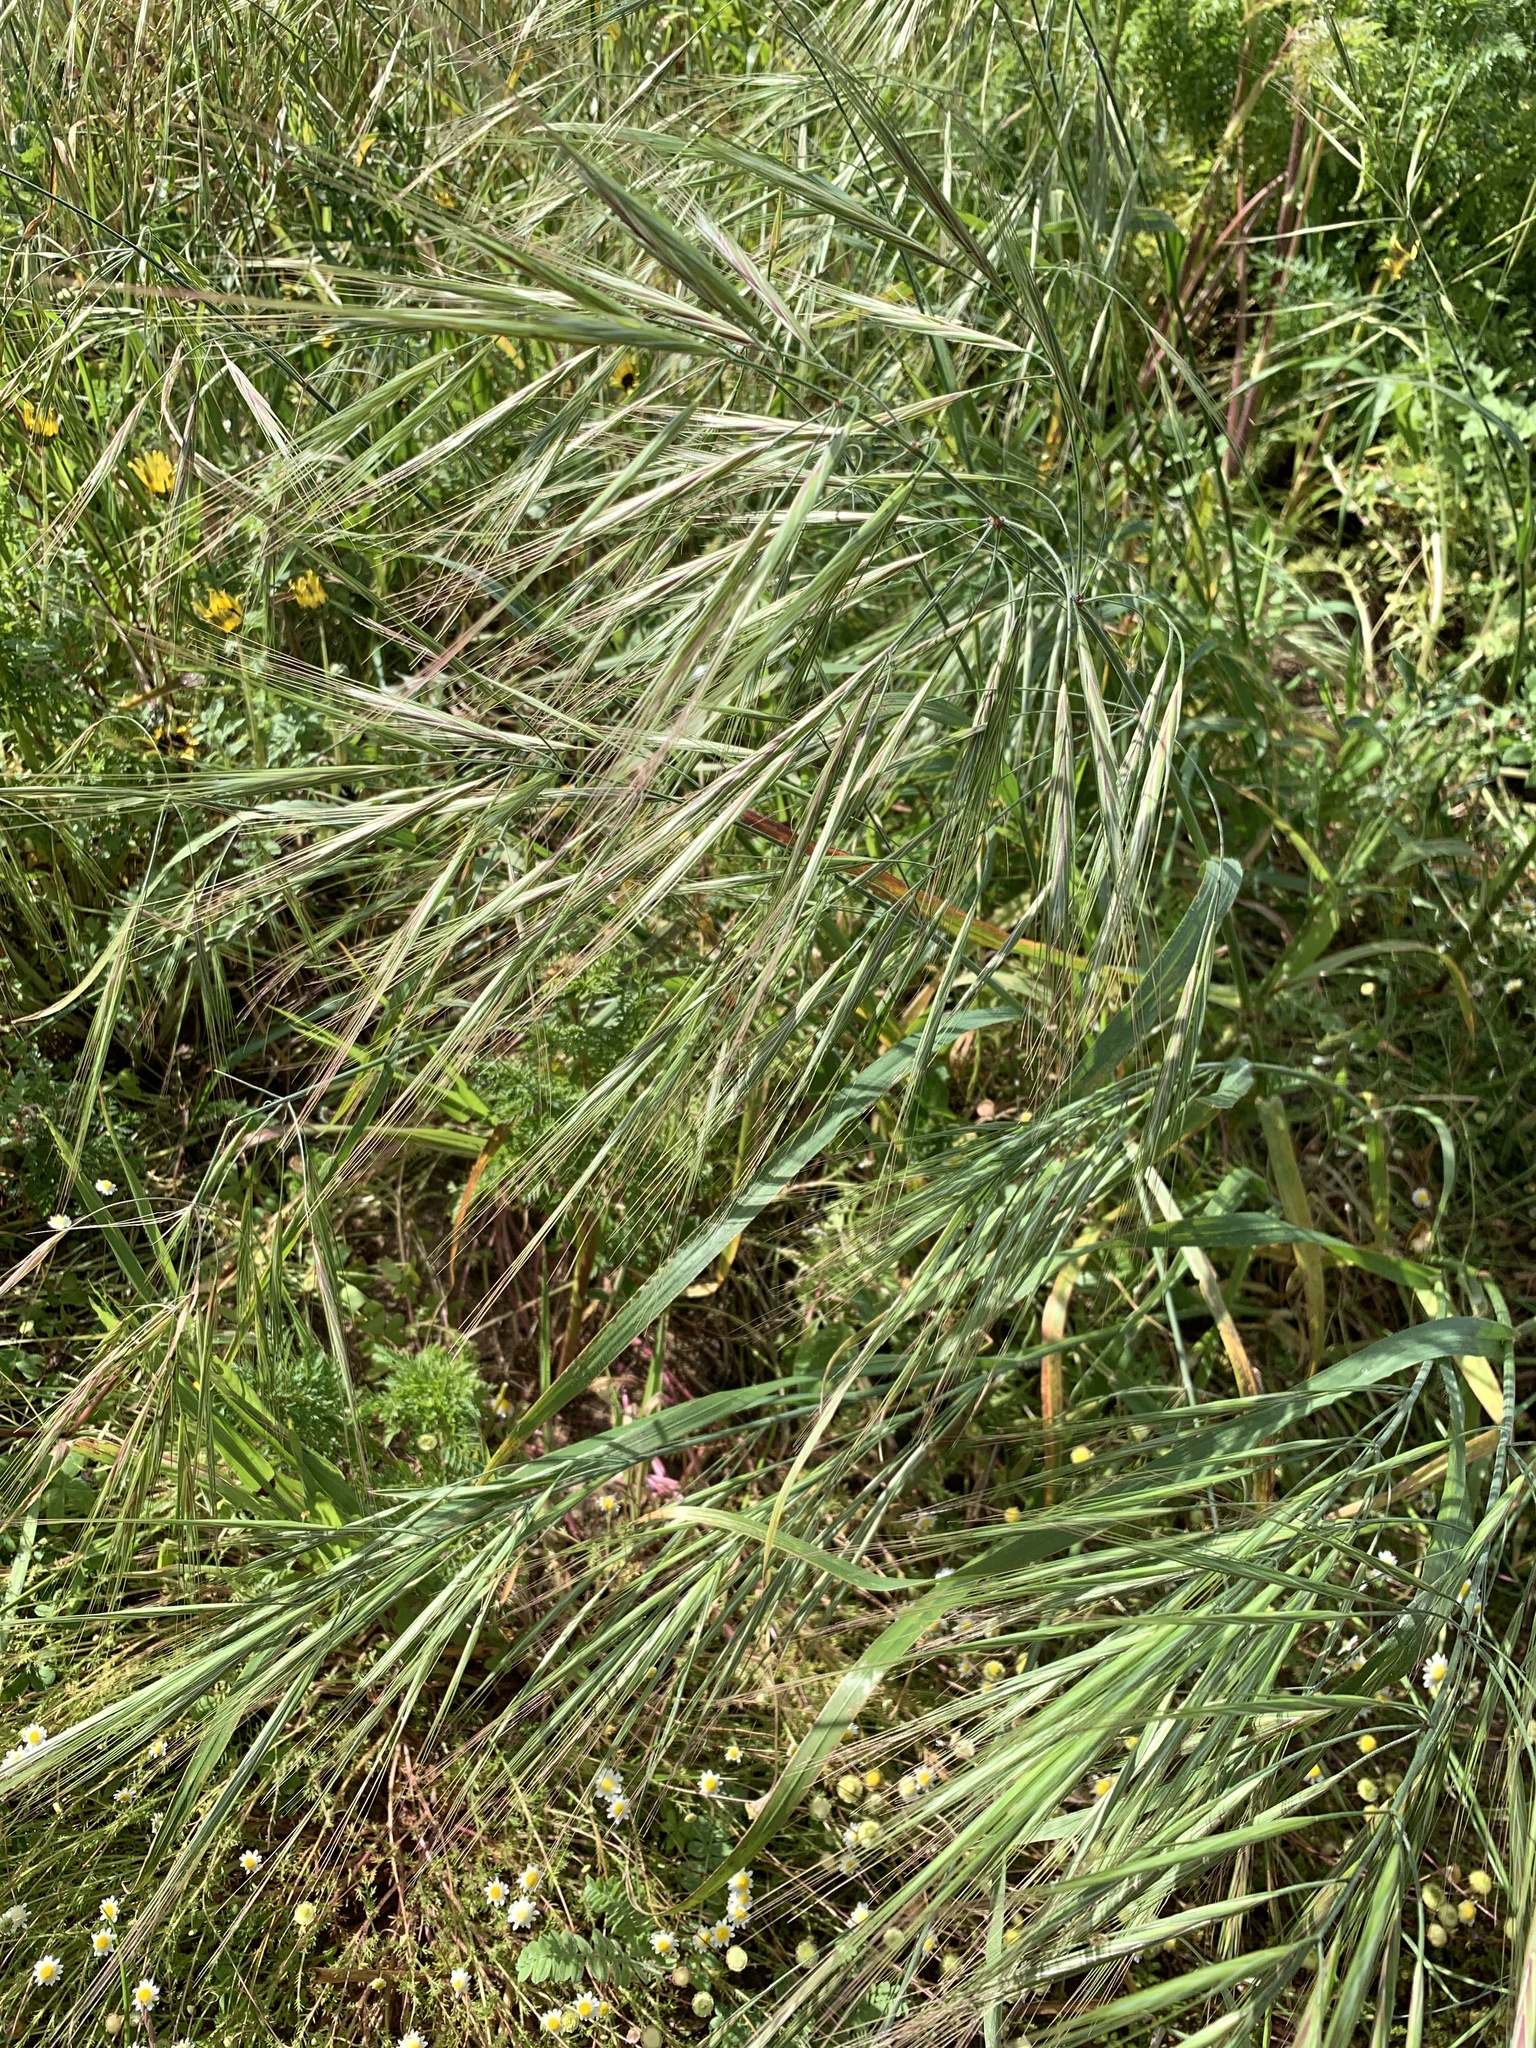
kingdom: Plantae
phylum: Tracheophyta
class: Liliopsida
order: Poales
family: Poaceae
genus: Bromus
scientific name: Bromus diandrus
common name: Ripgut brome
